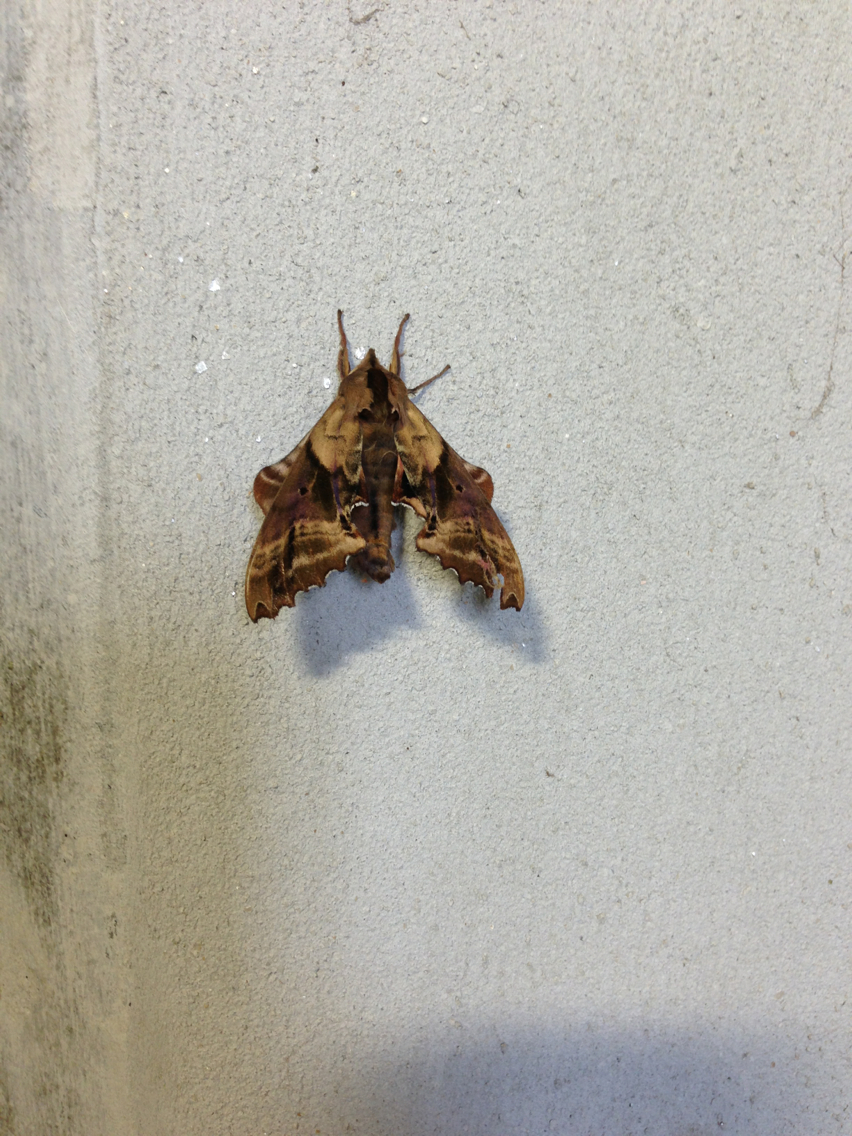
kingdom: Animalia
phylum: Arthropoda
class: Insecta
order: Lepidoptera
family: Sphingidae
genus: Paonias
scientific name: Paonias excaecata
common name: Blind-eyed sphinx
